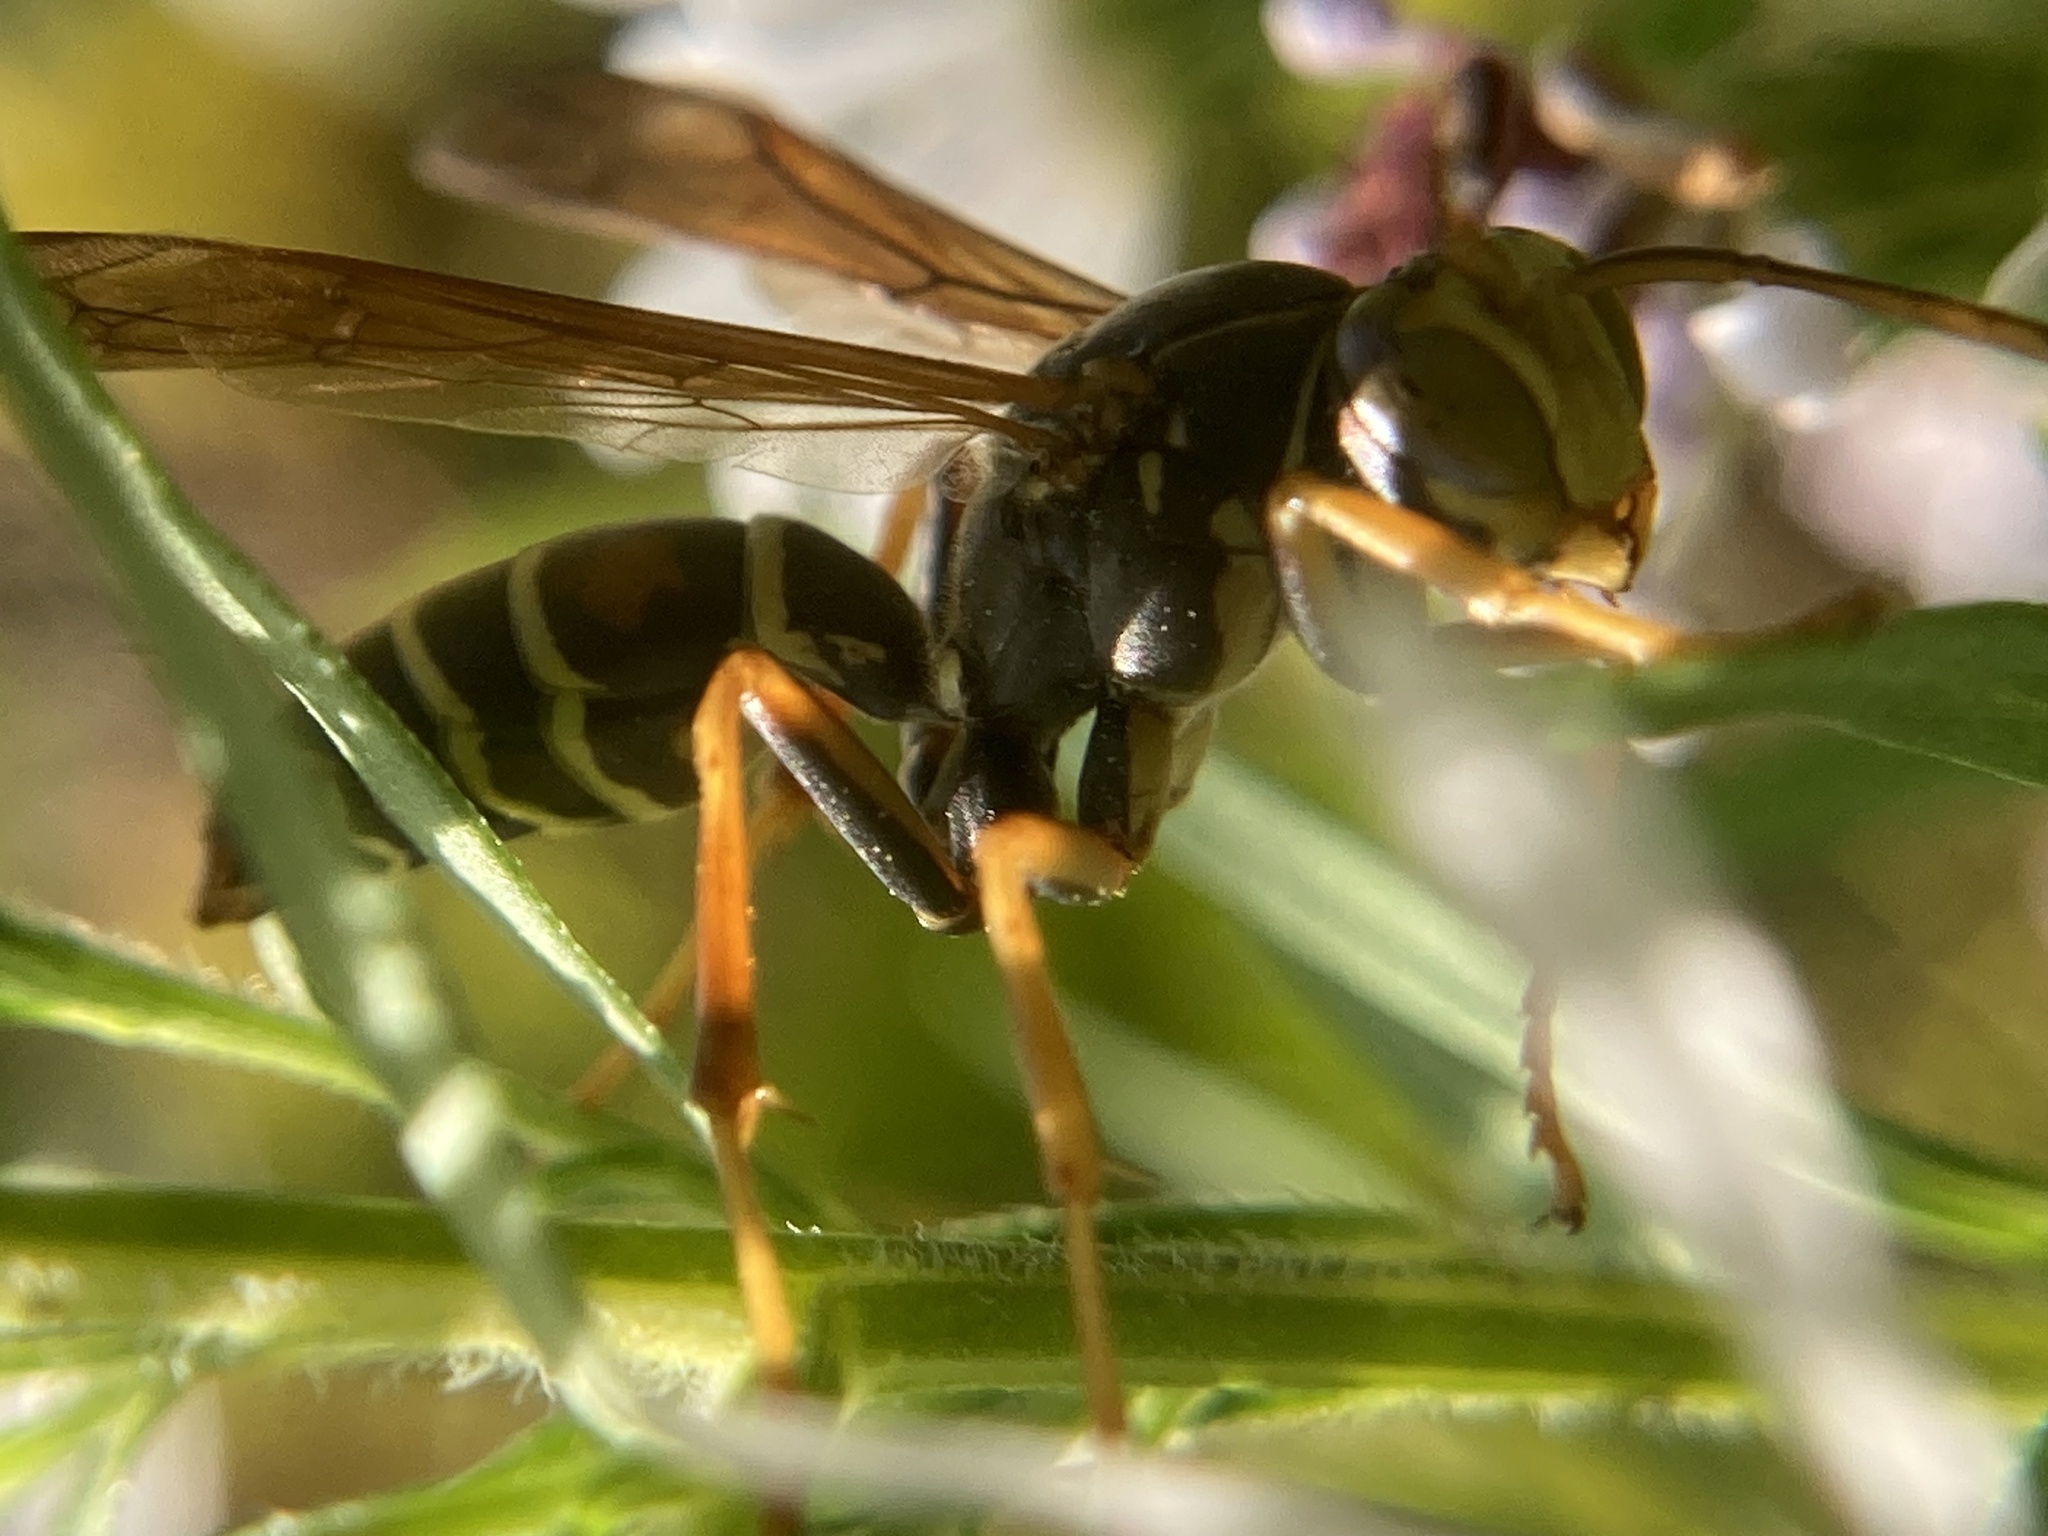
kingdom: Animalia
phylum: Arthropoda
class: Insecta
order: Hymenoptera
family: Eumenidae
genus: Polistes
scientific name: Polistes fuscatus
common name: Dark paper wasp
